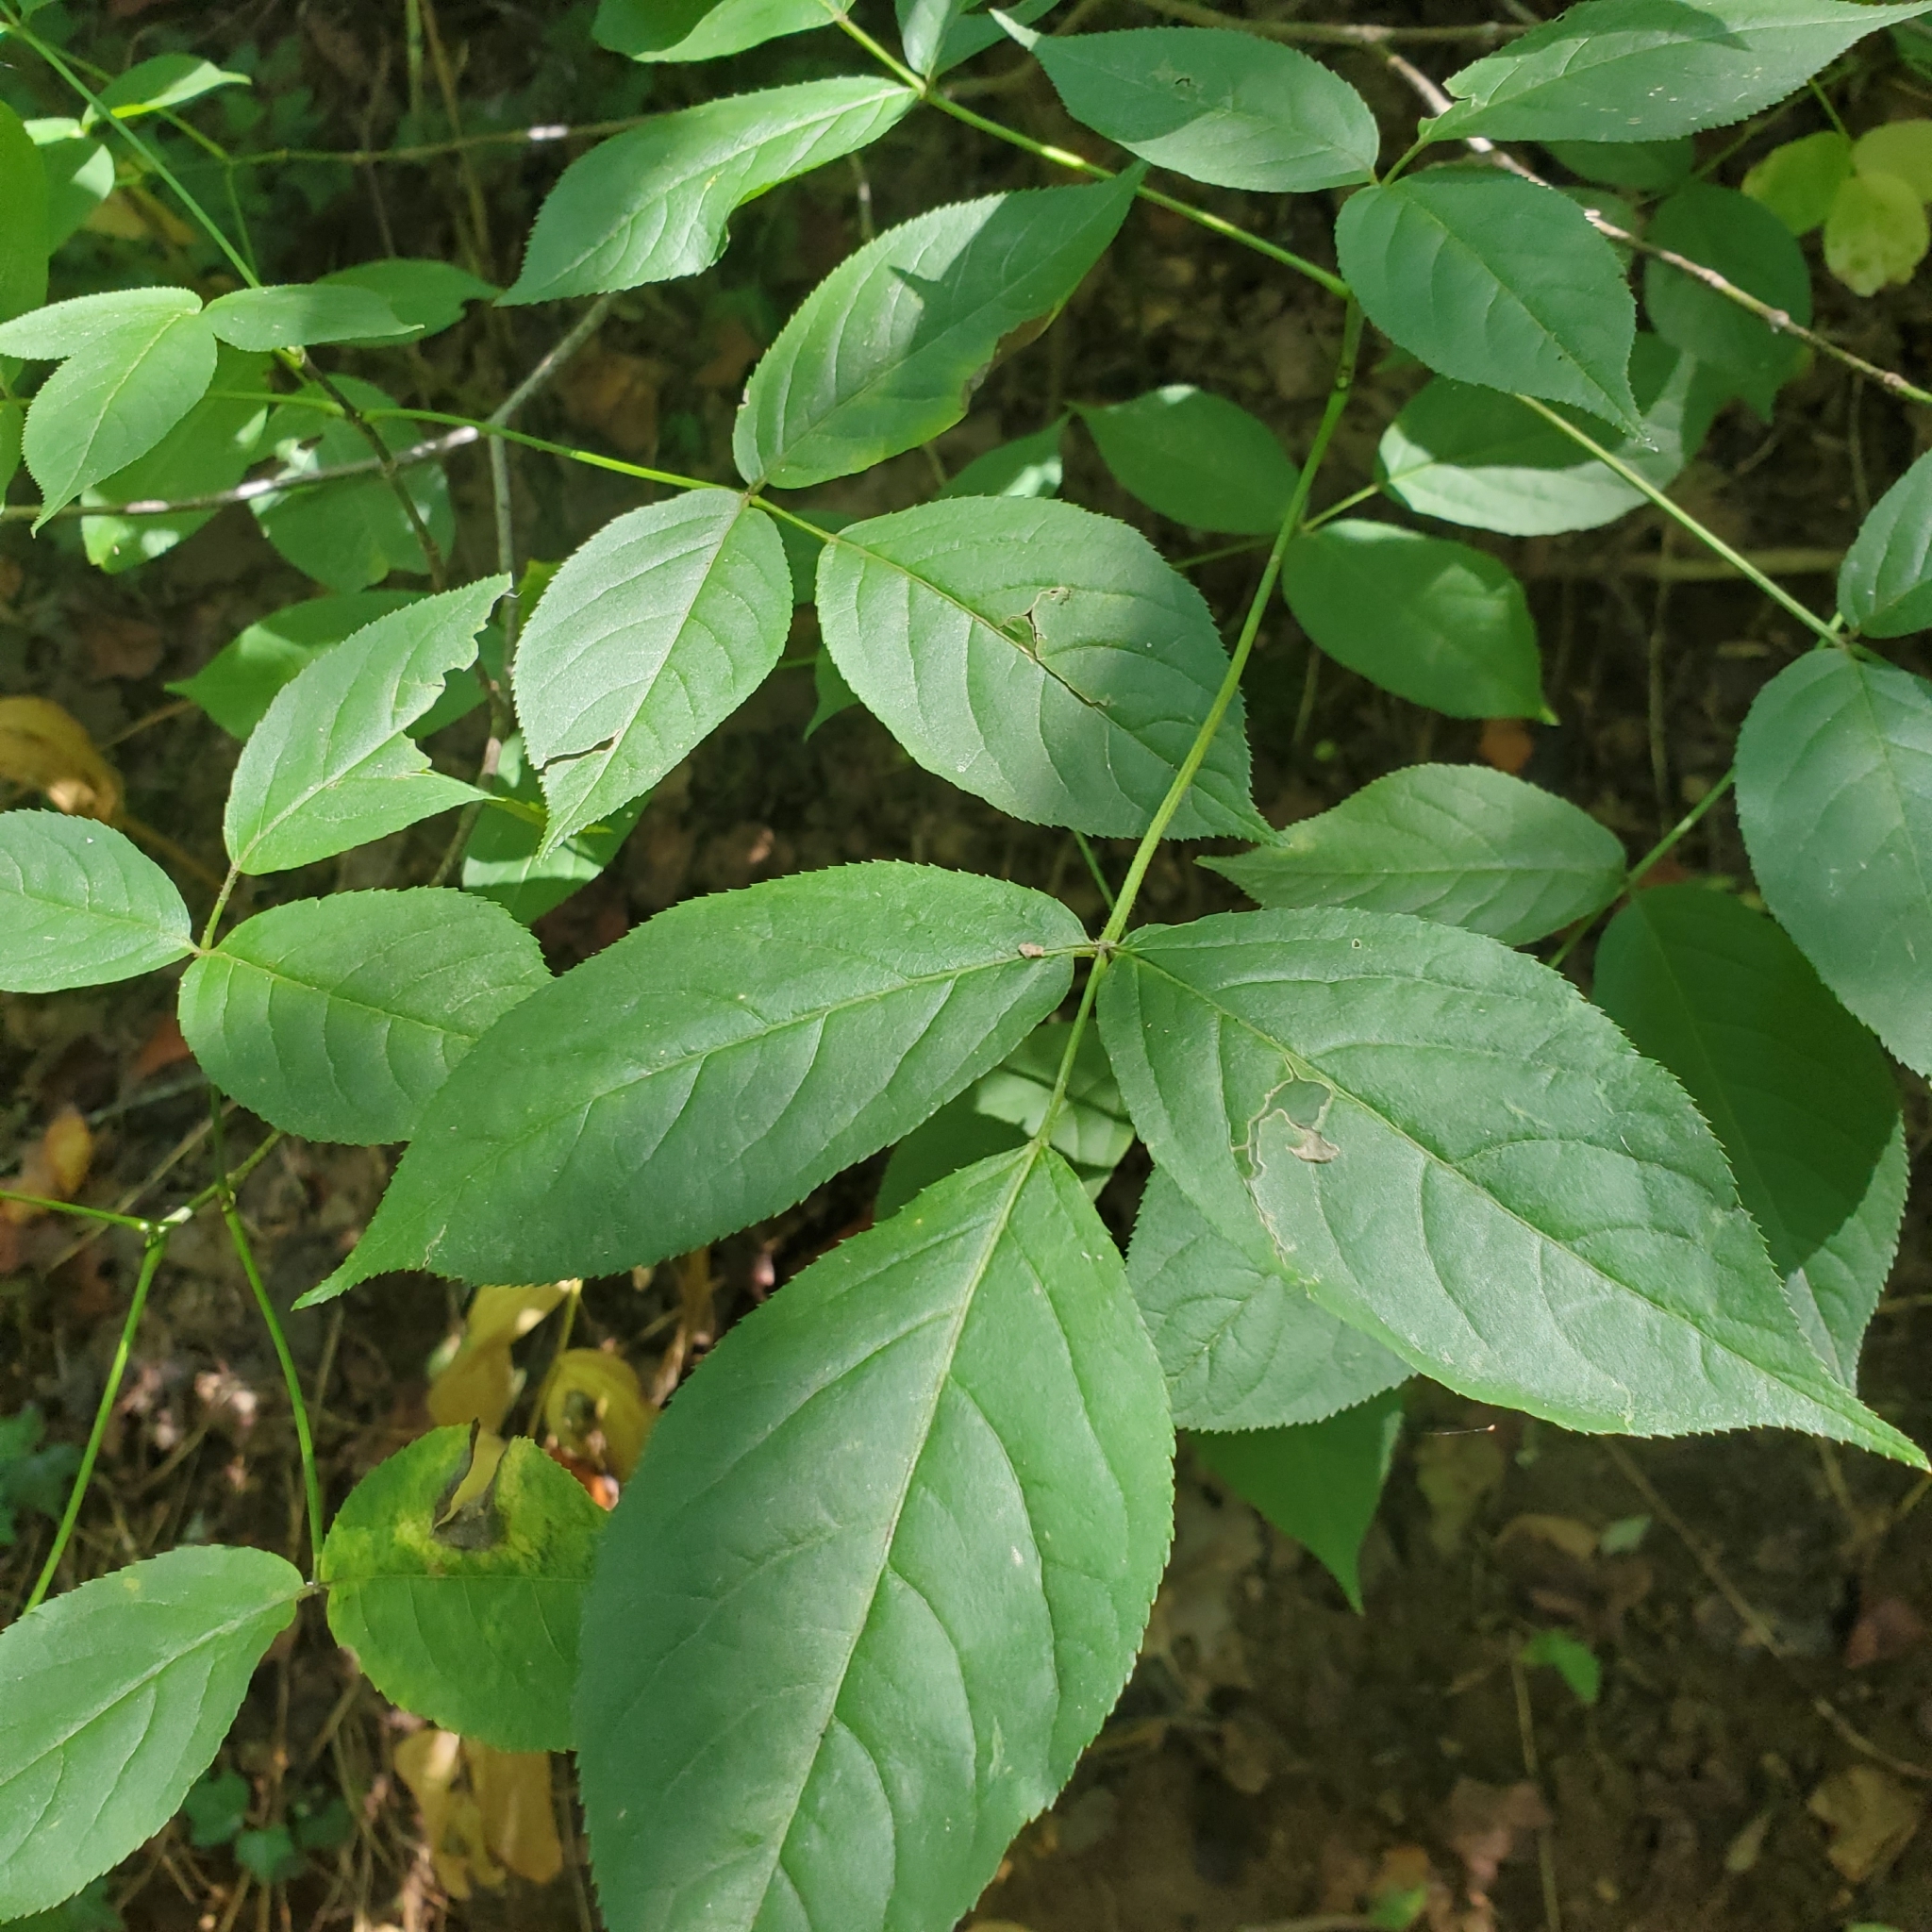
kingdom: Plantae
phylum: Tracheophyta
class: Magnoliopsida
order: Crossosomatales
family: Staphyleaceae
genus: Staphylea
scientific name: Staphylea trifolia
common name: American bladdernut
